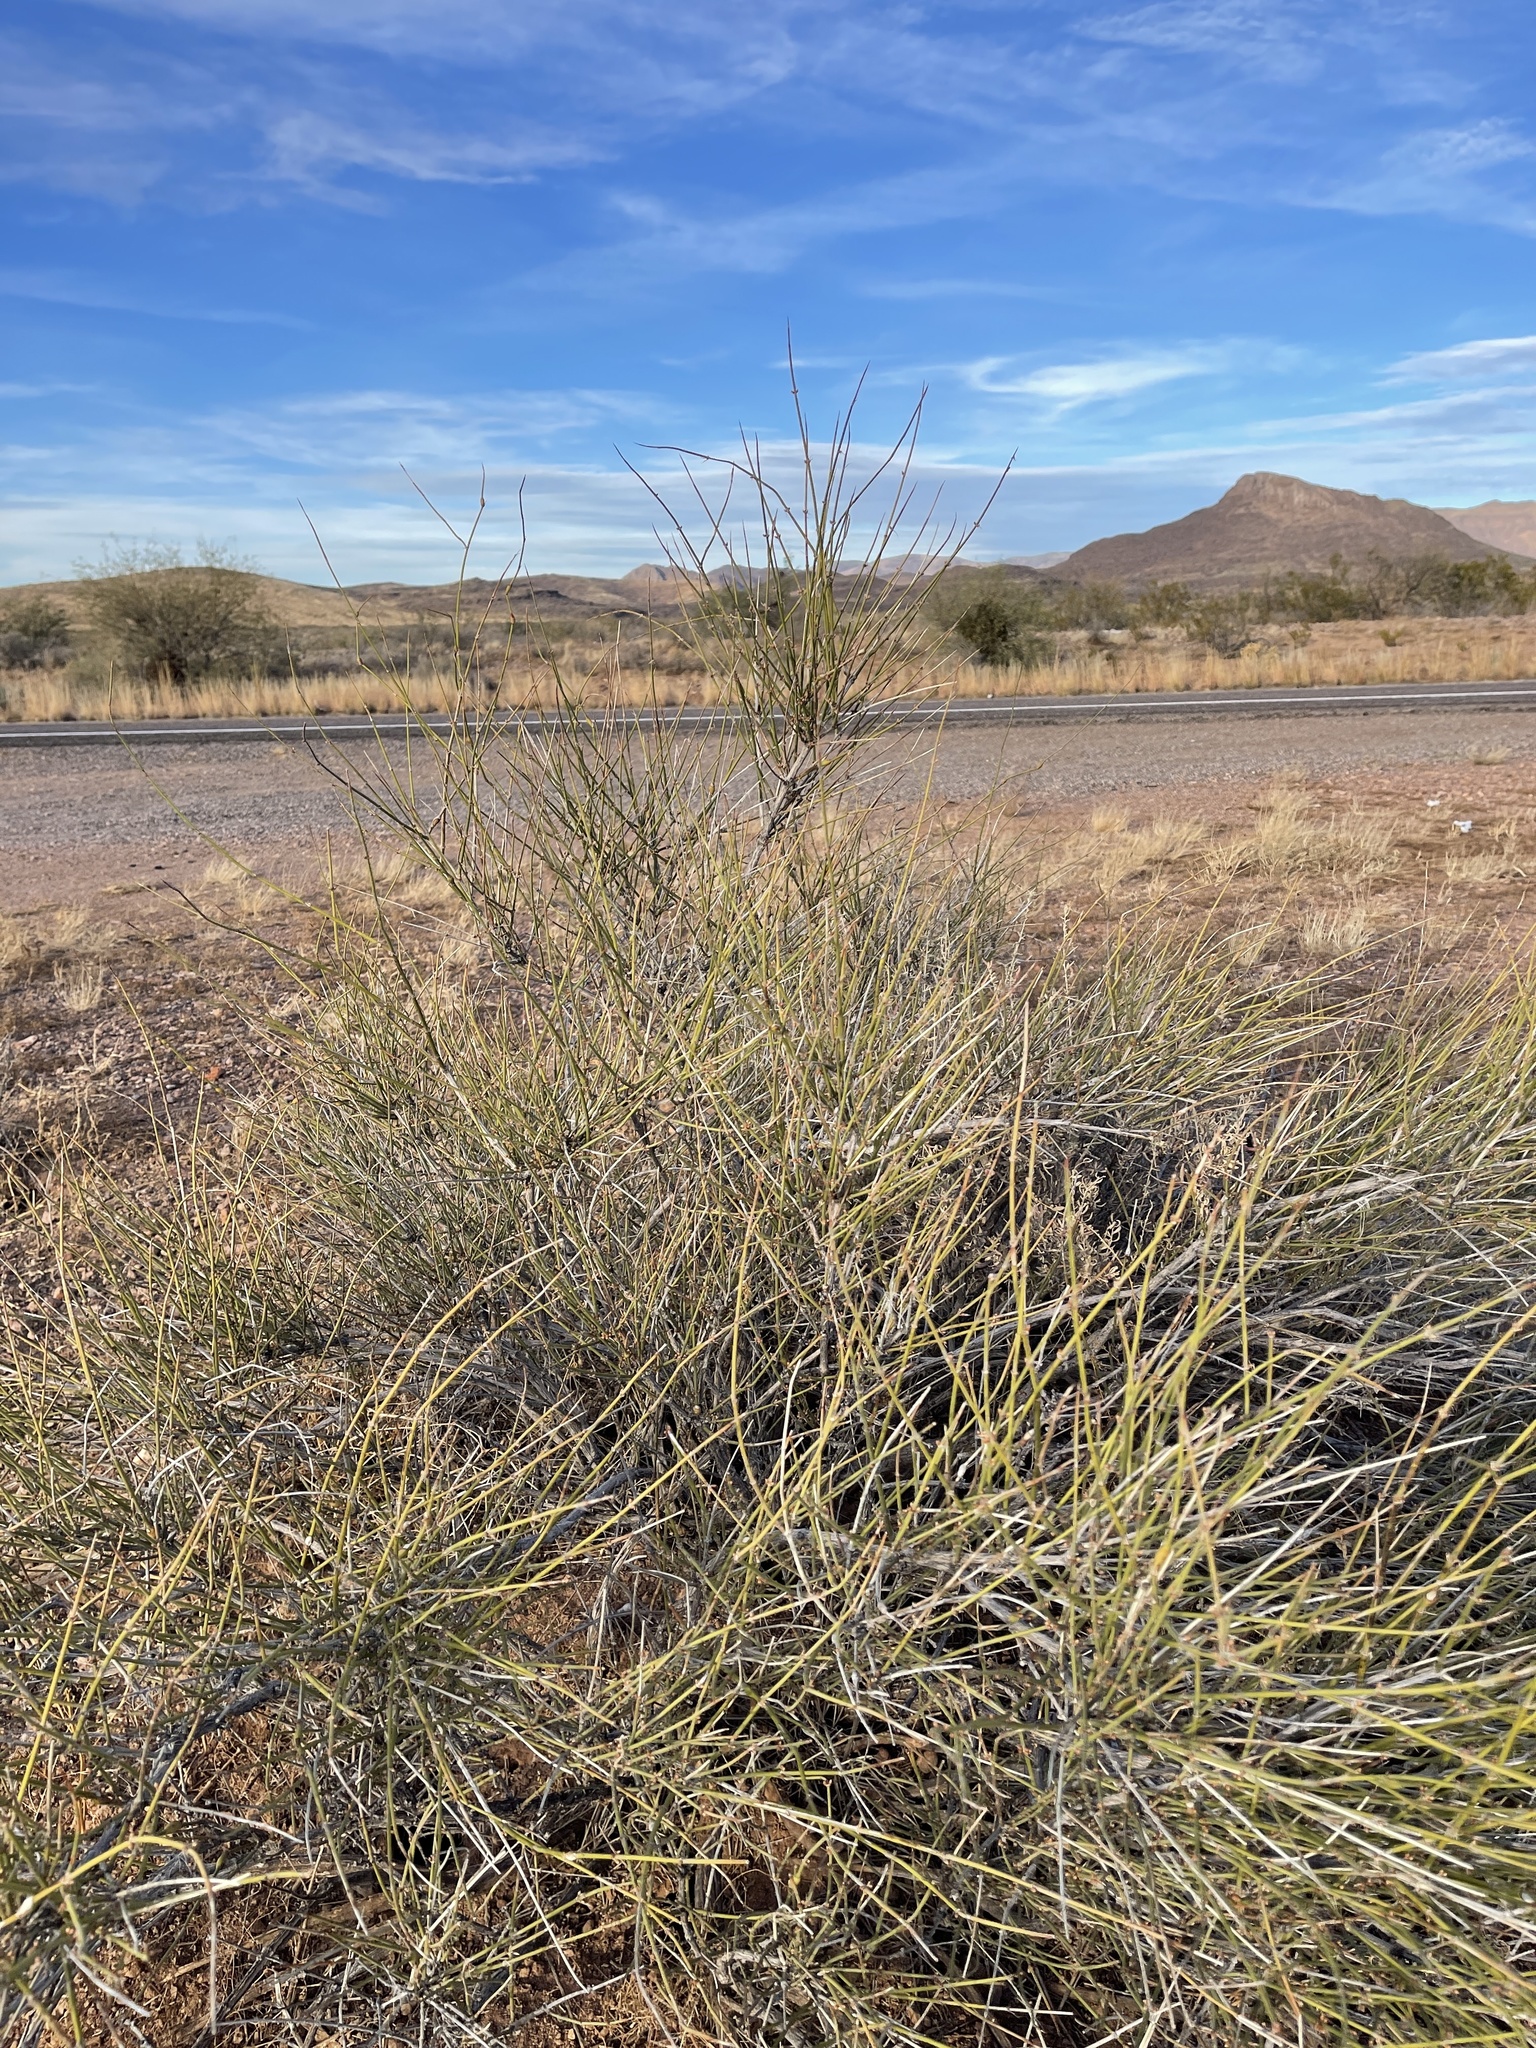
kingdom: Plantae
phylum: Tracheophyta
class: Gnetopsida
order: Ephedrales
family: Ephedraceae
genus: Ephedra
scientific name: Ephedra trifurca
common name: Mexican-tea
